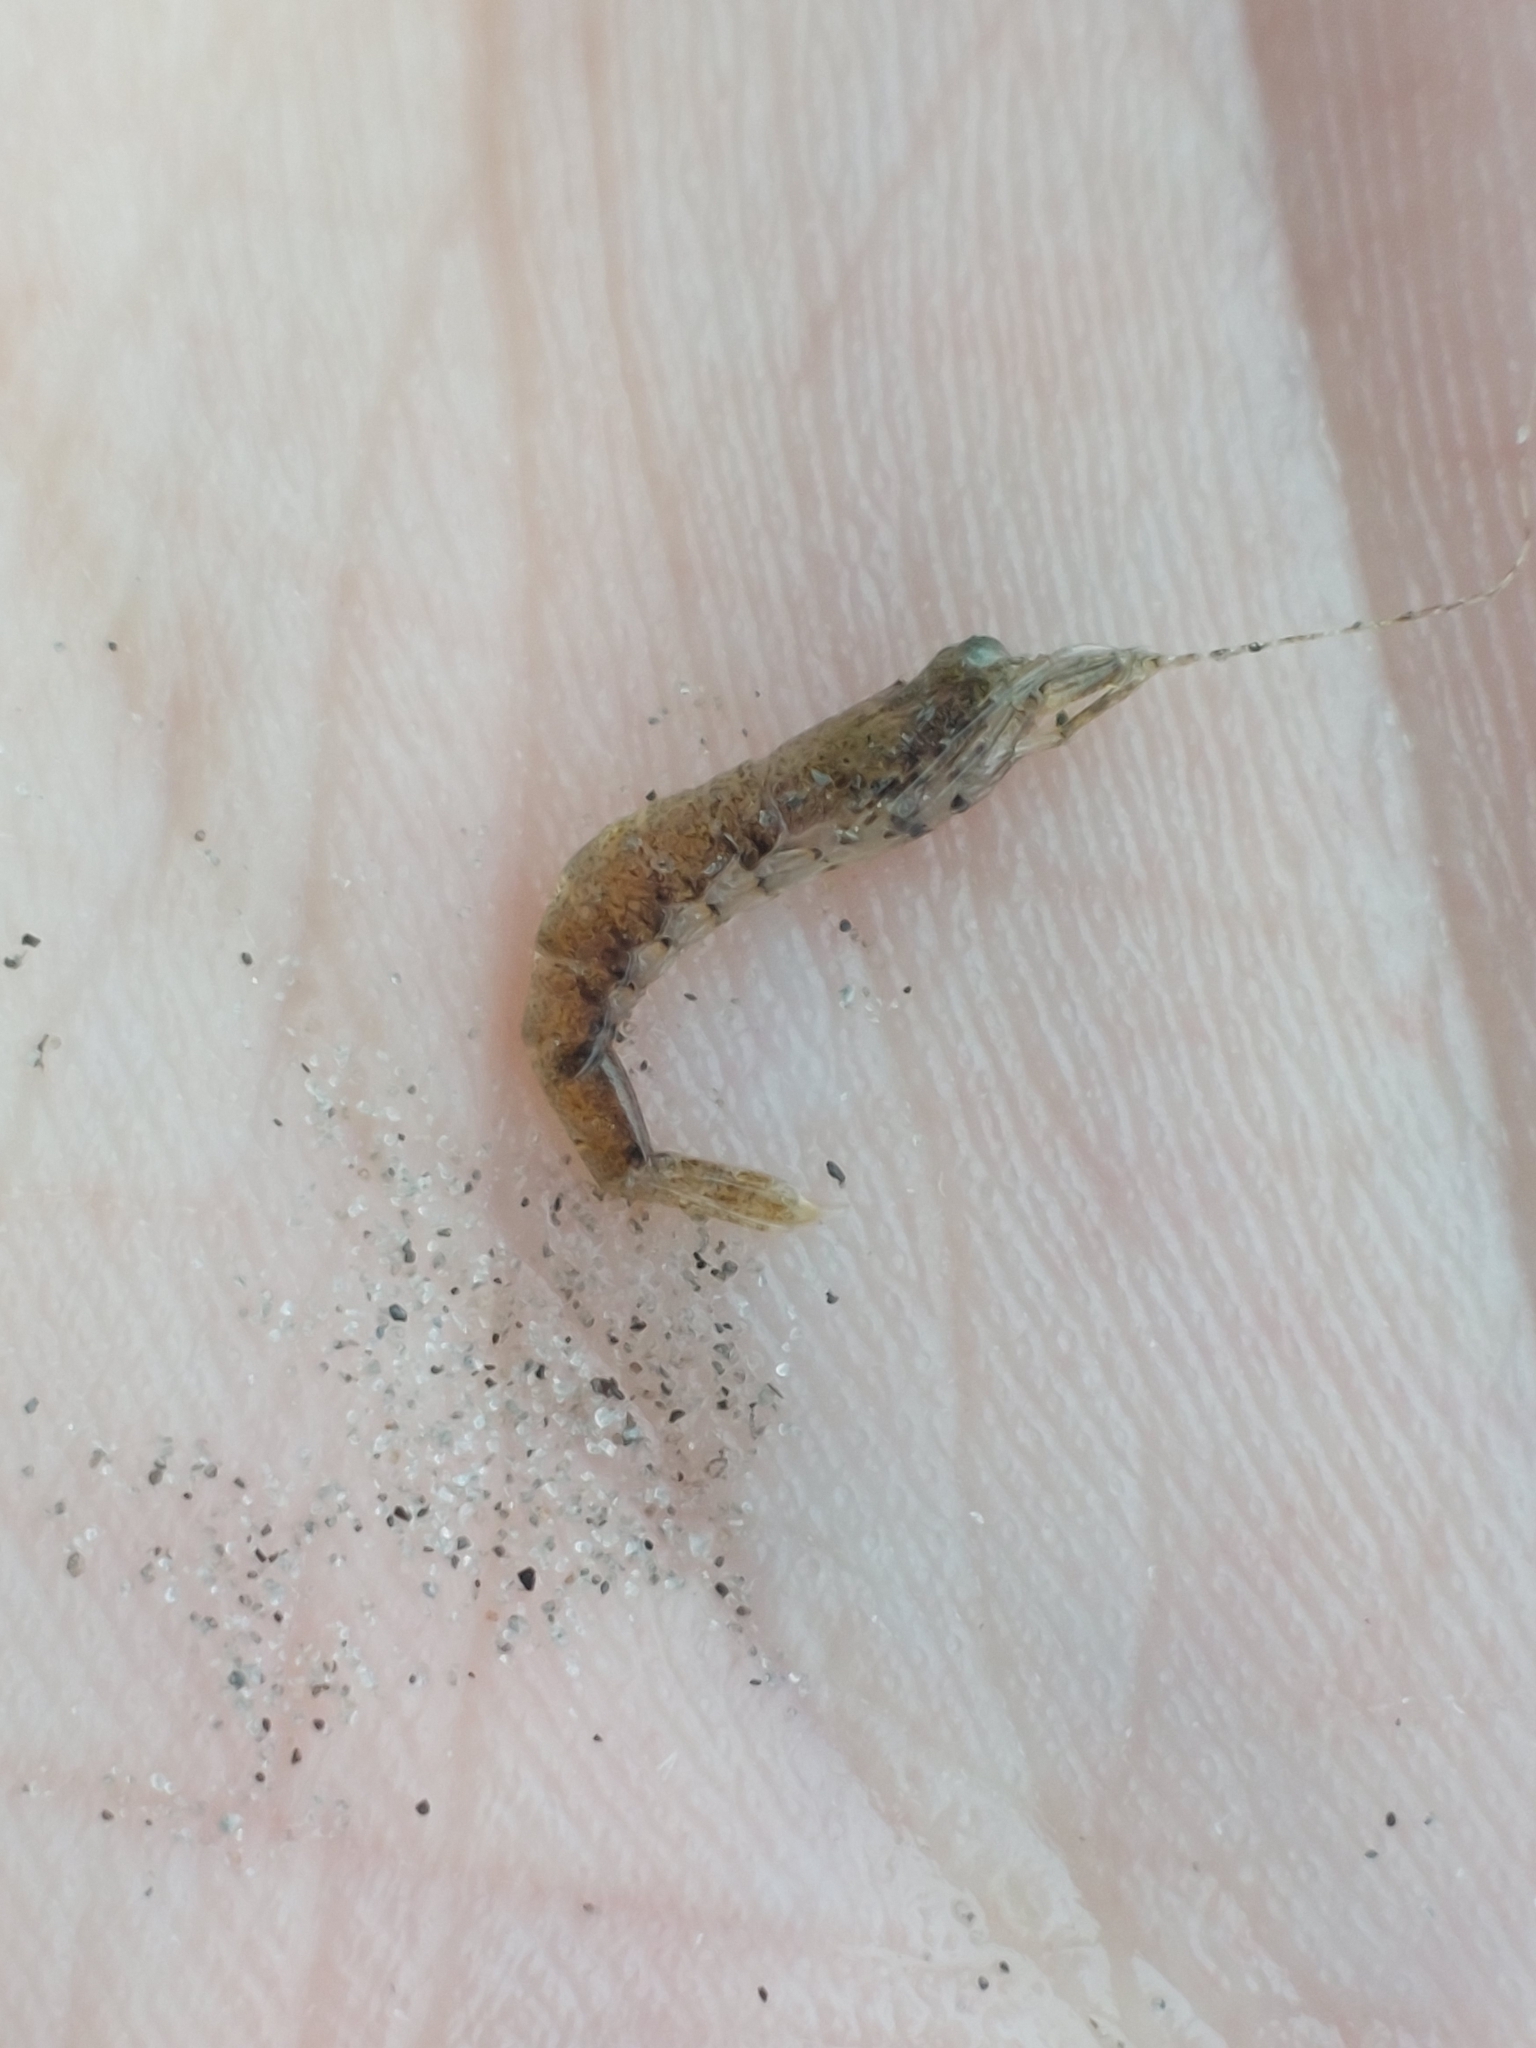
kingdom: Animalia
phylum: Arthropoda
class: Malacostraca
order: Decapoda
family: Crangonidae
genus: Crangon
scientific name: Crangon crangon
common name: Brown shrimp
